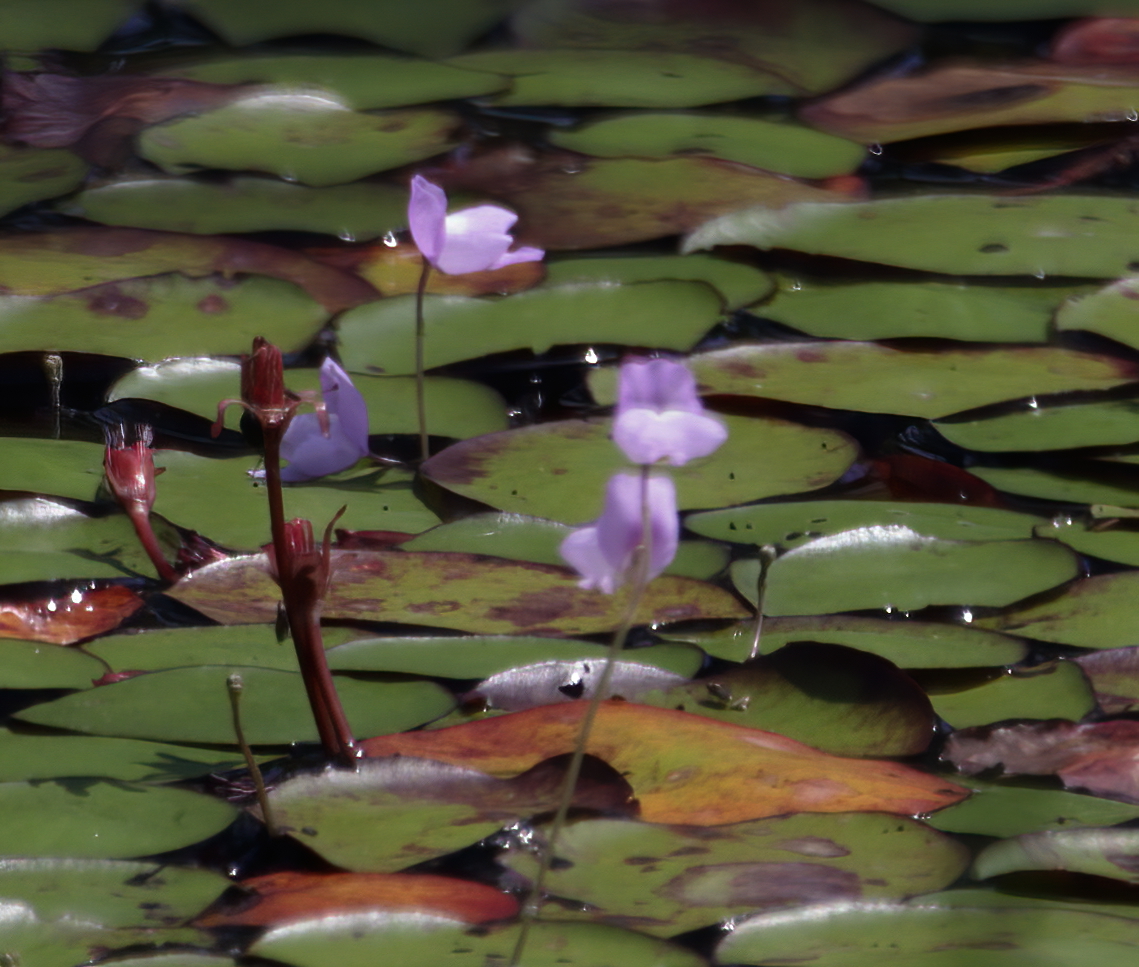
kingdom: Plantae
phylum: Tracheophyta
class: Magnoliopsida
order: Lamiales
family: Lentibulariaceae
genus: Utricularia
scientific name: Utricularia purpurea
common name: Eastern purple bladderwort
